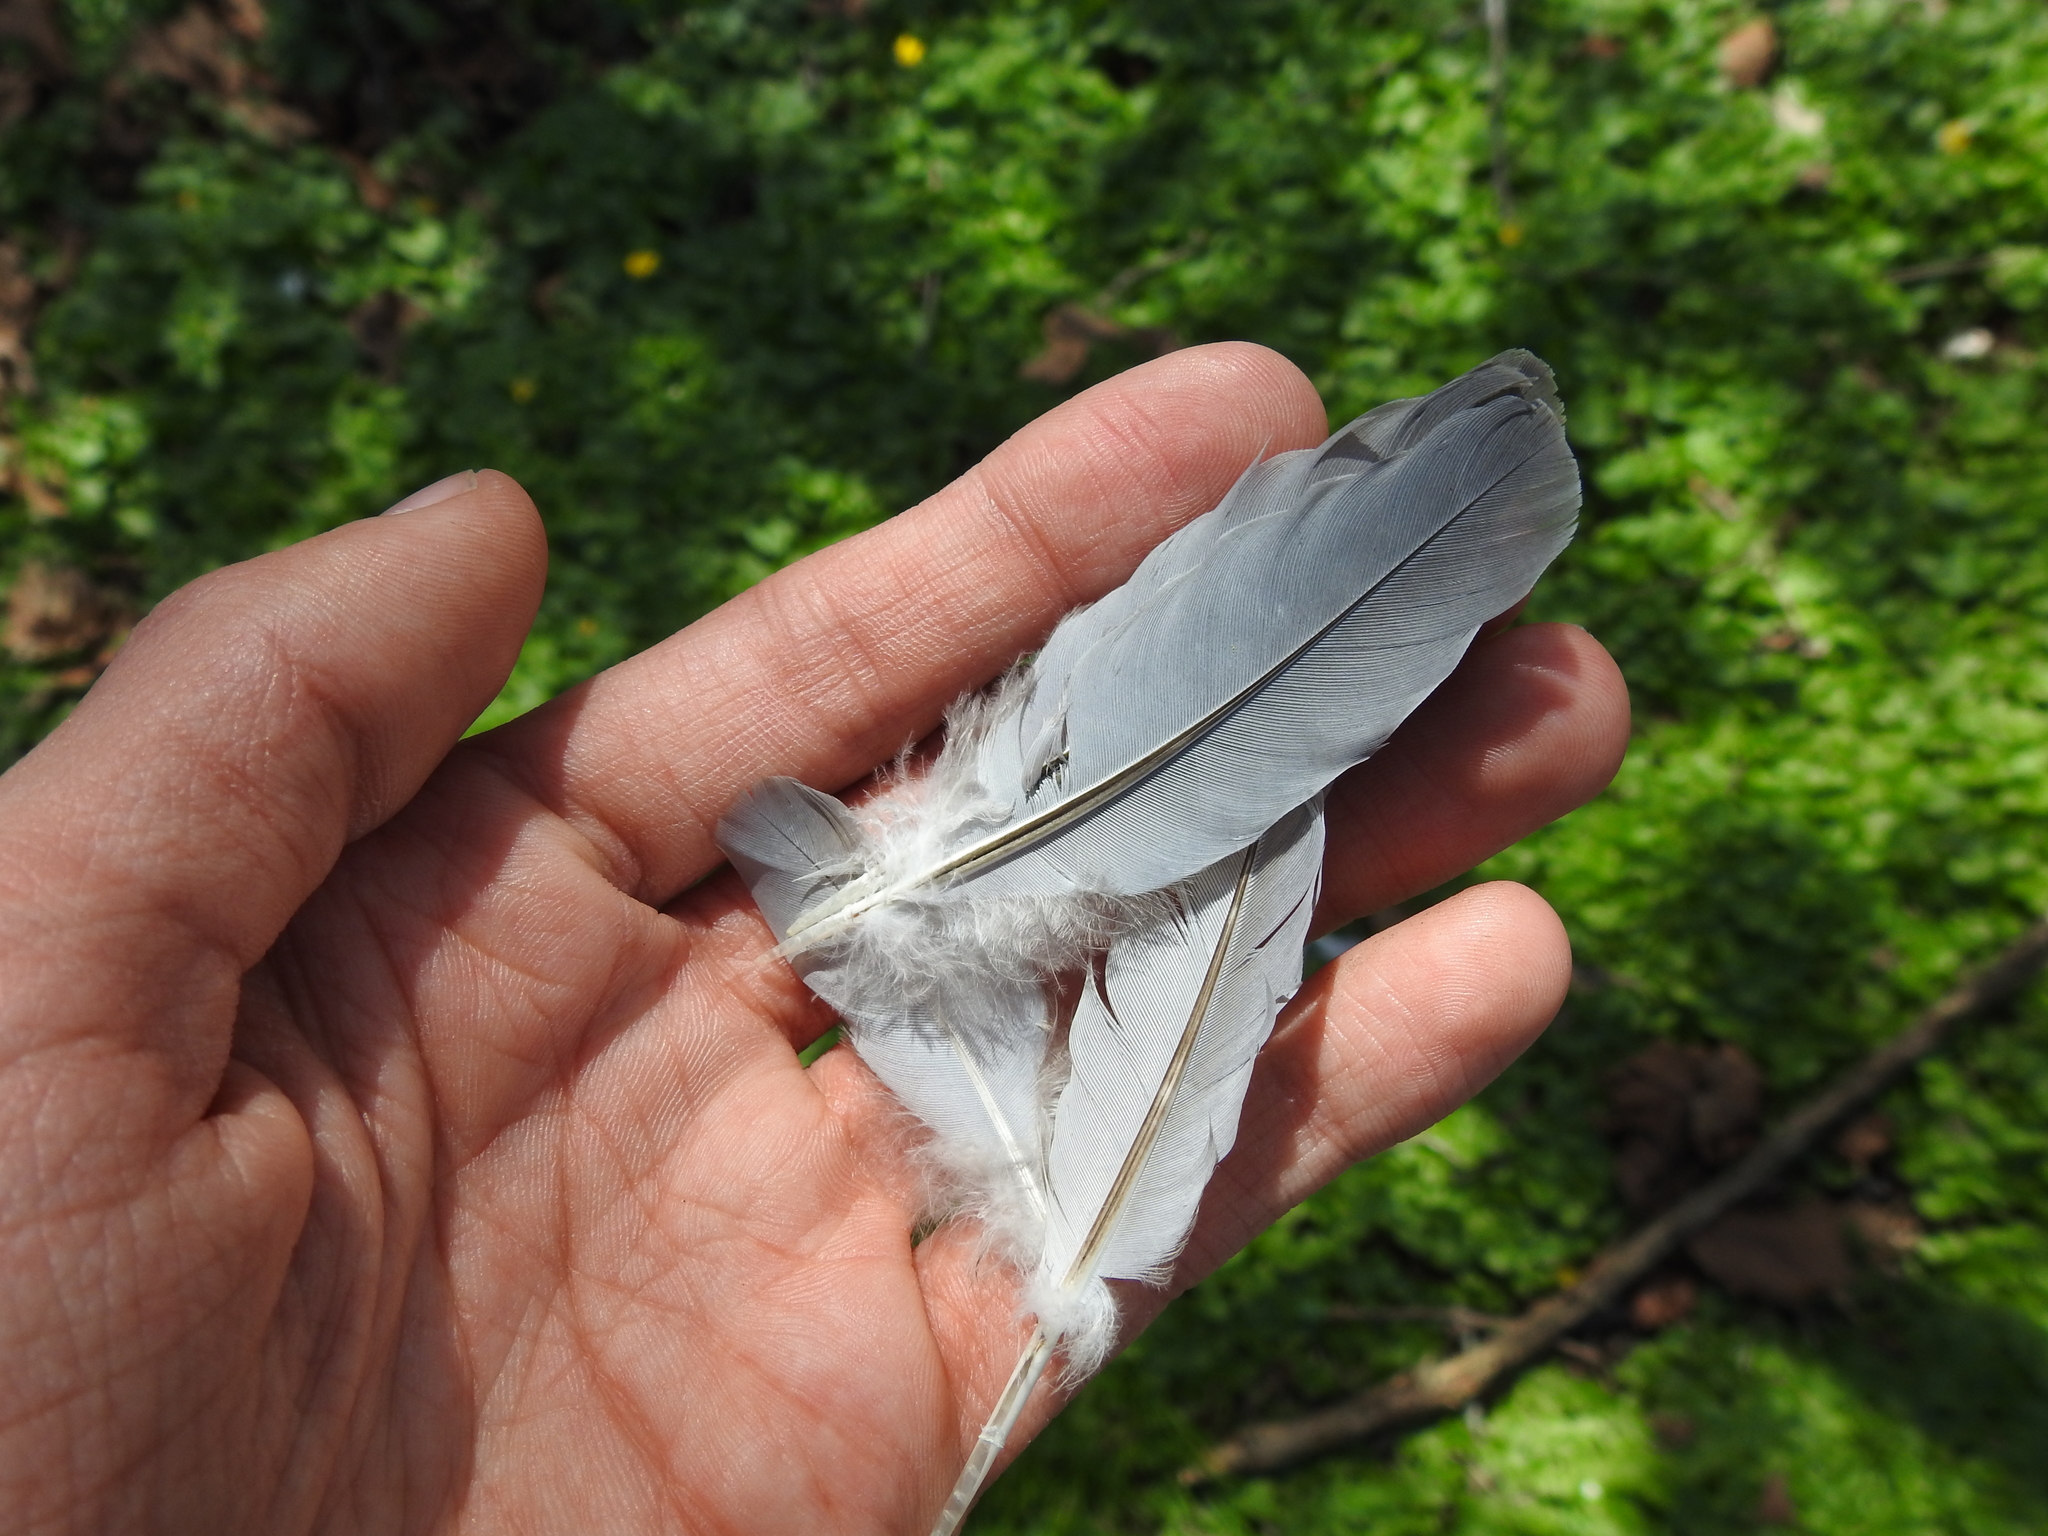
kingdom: Animalia
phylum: Chordata
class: Aves
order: Columbiformes
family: Columbidae
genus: Zenaida
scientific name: Zenaida macroura
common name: Mourning dove
